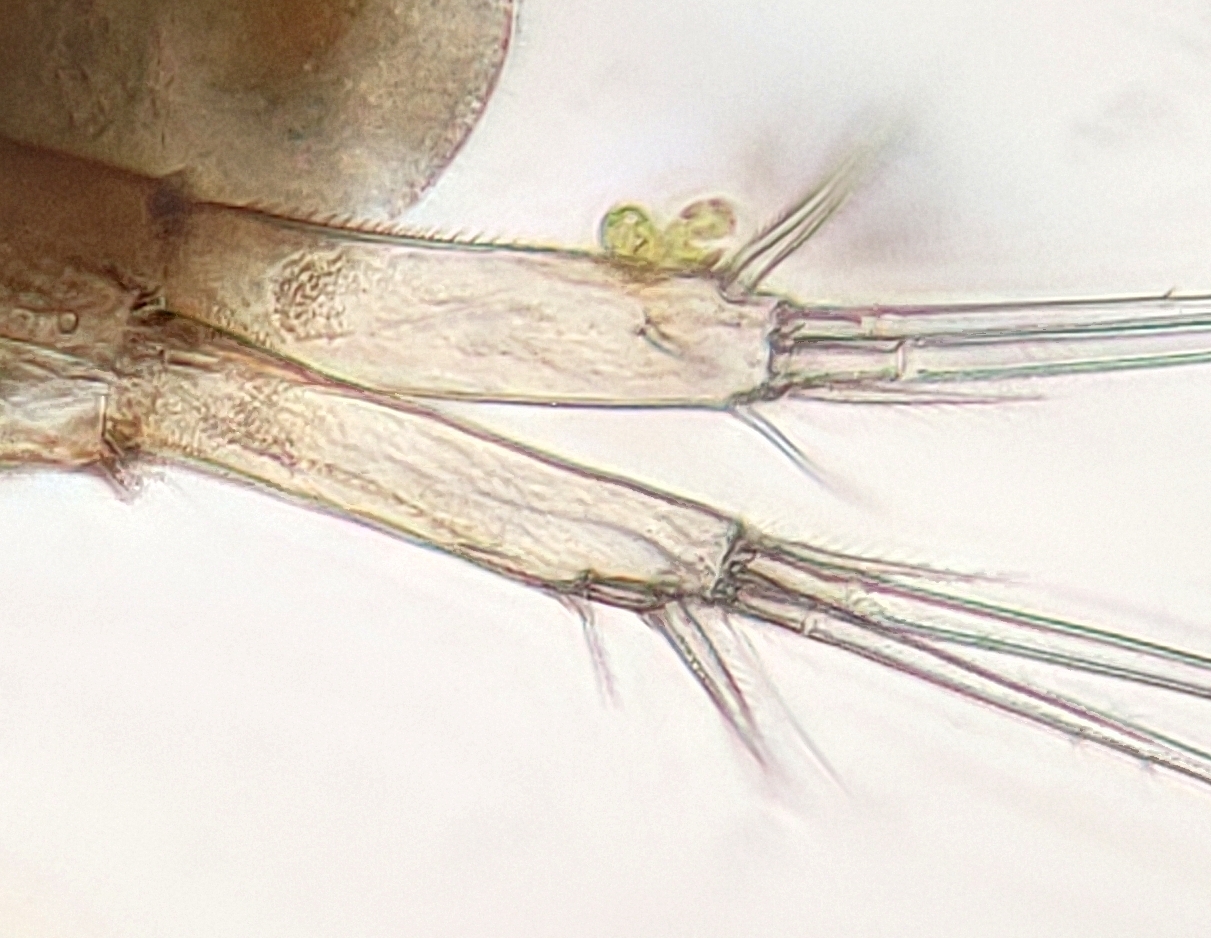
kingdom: Protozoa
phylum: Euglenozoa
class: Euglenoidea
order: Euglenida
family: Euglenaceae
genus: Colacium
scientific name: Colacium vesiculosum
